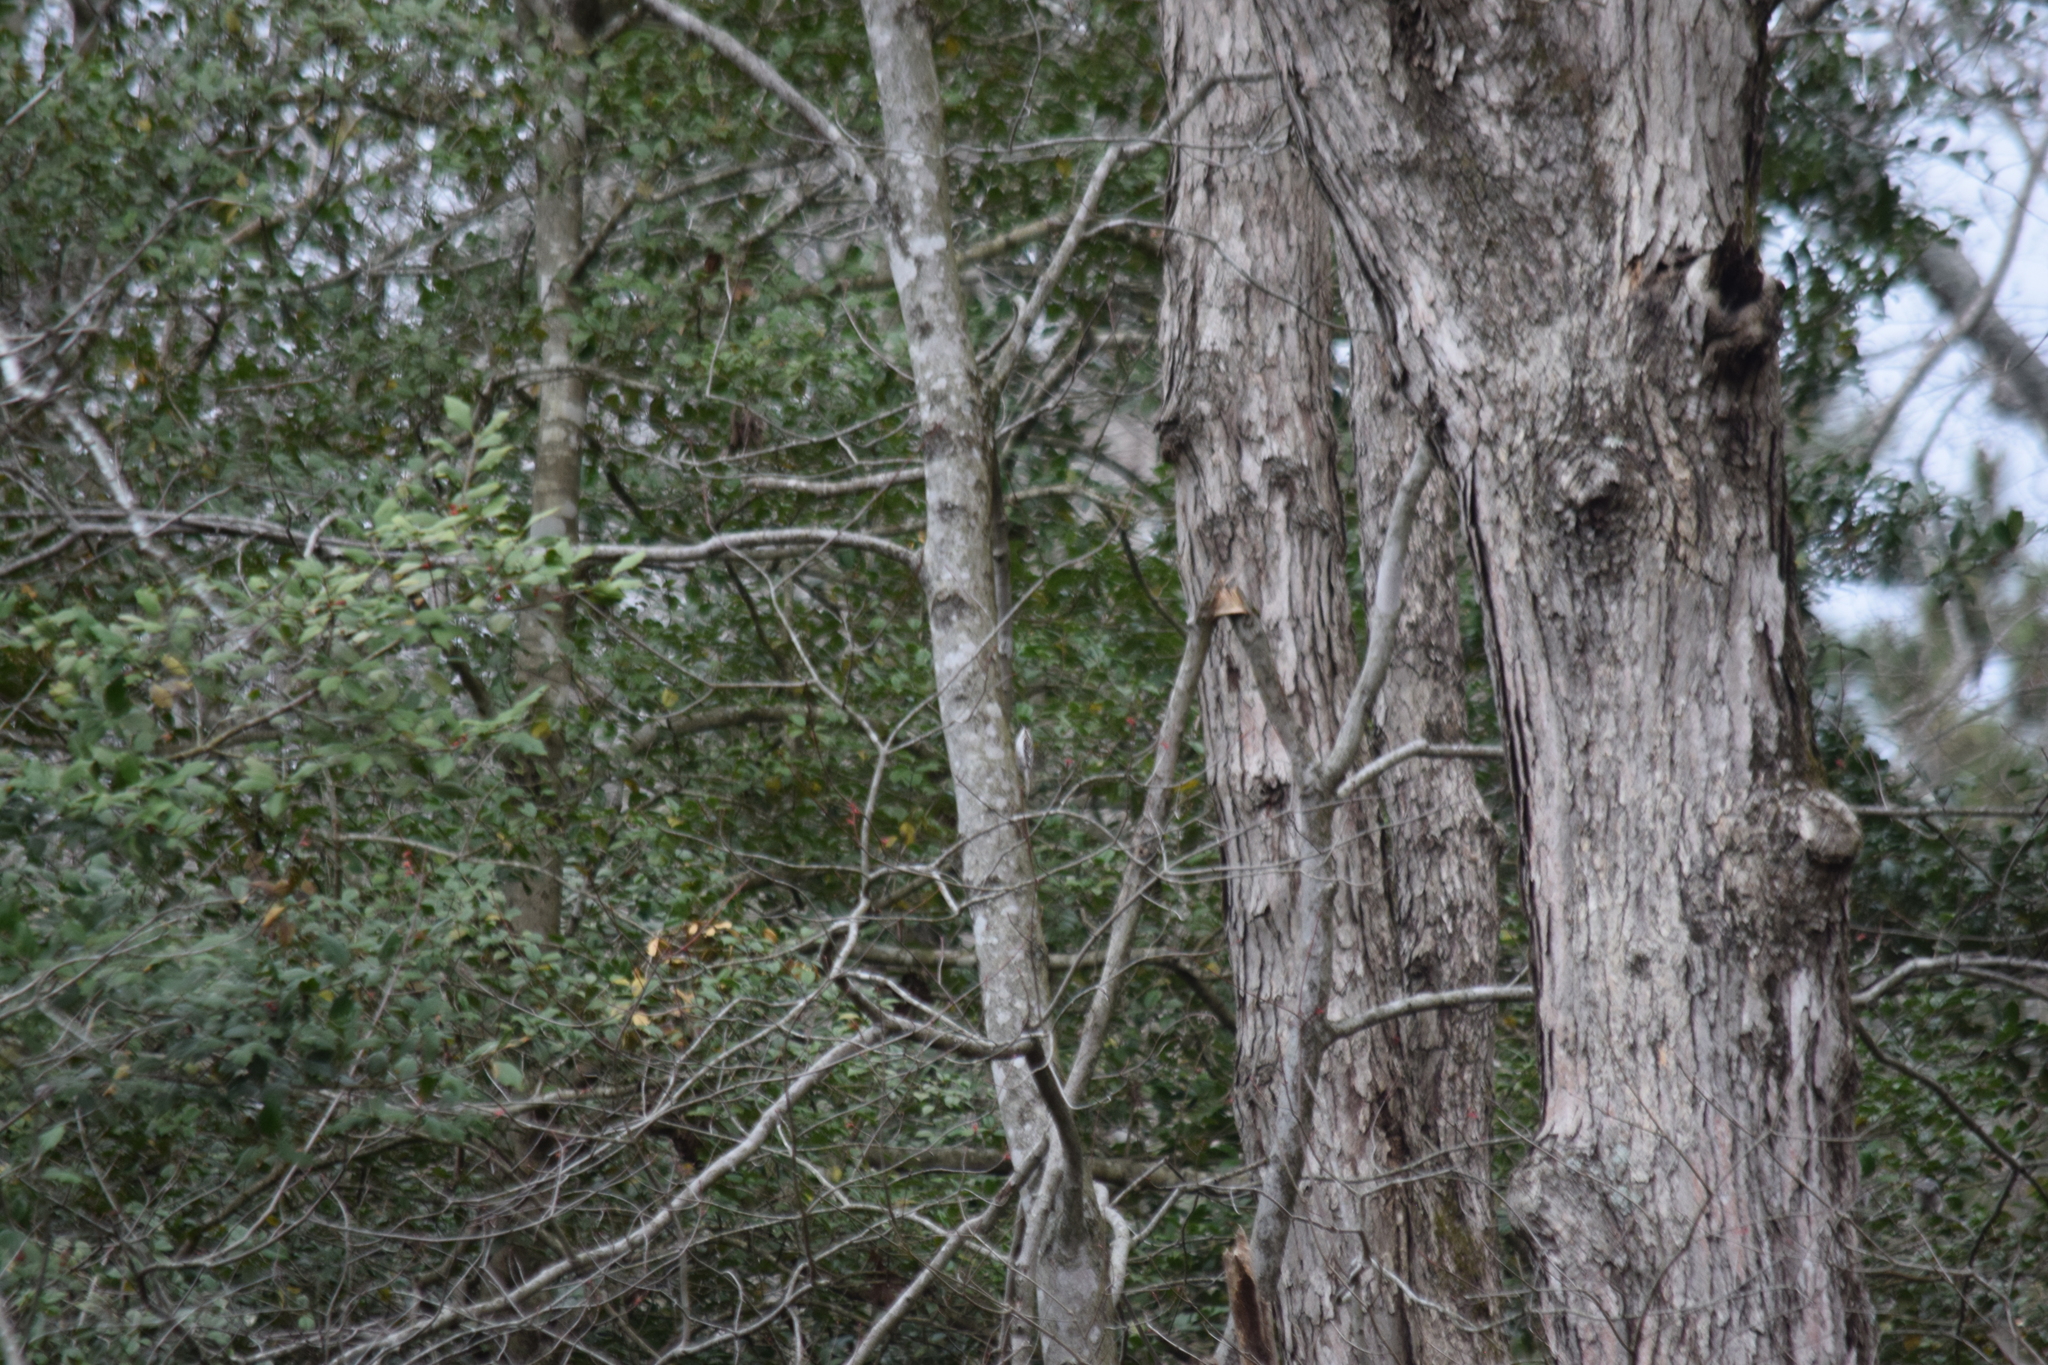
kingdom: Animalia
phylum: Chordata
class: Aves
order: Passeriformes
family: Certhiidae
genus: Certhia
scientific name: Certhia americana
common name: Brown creeper
